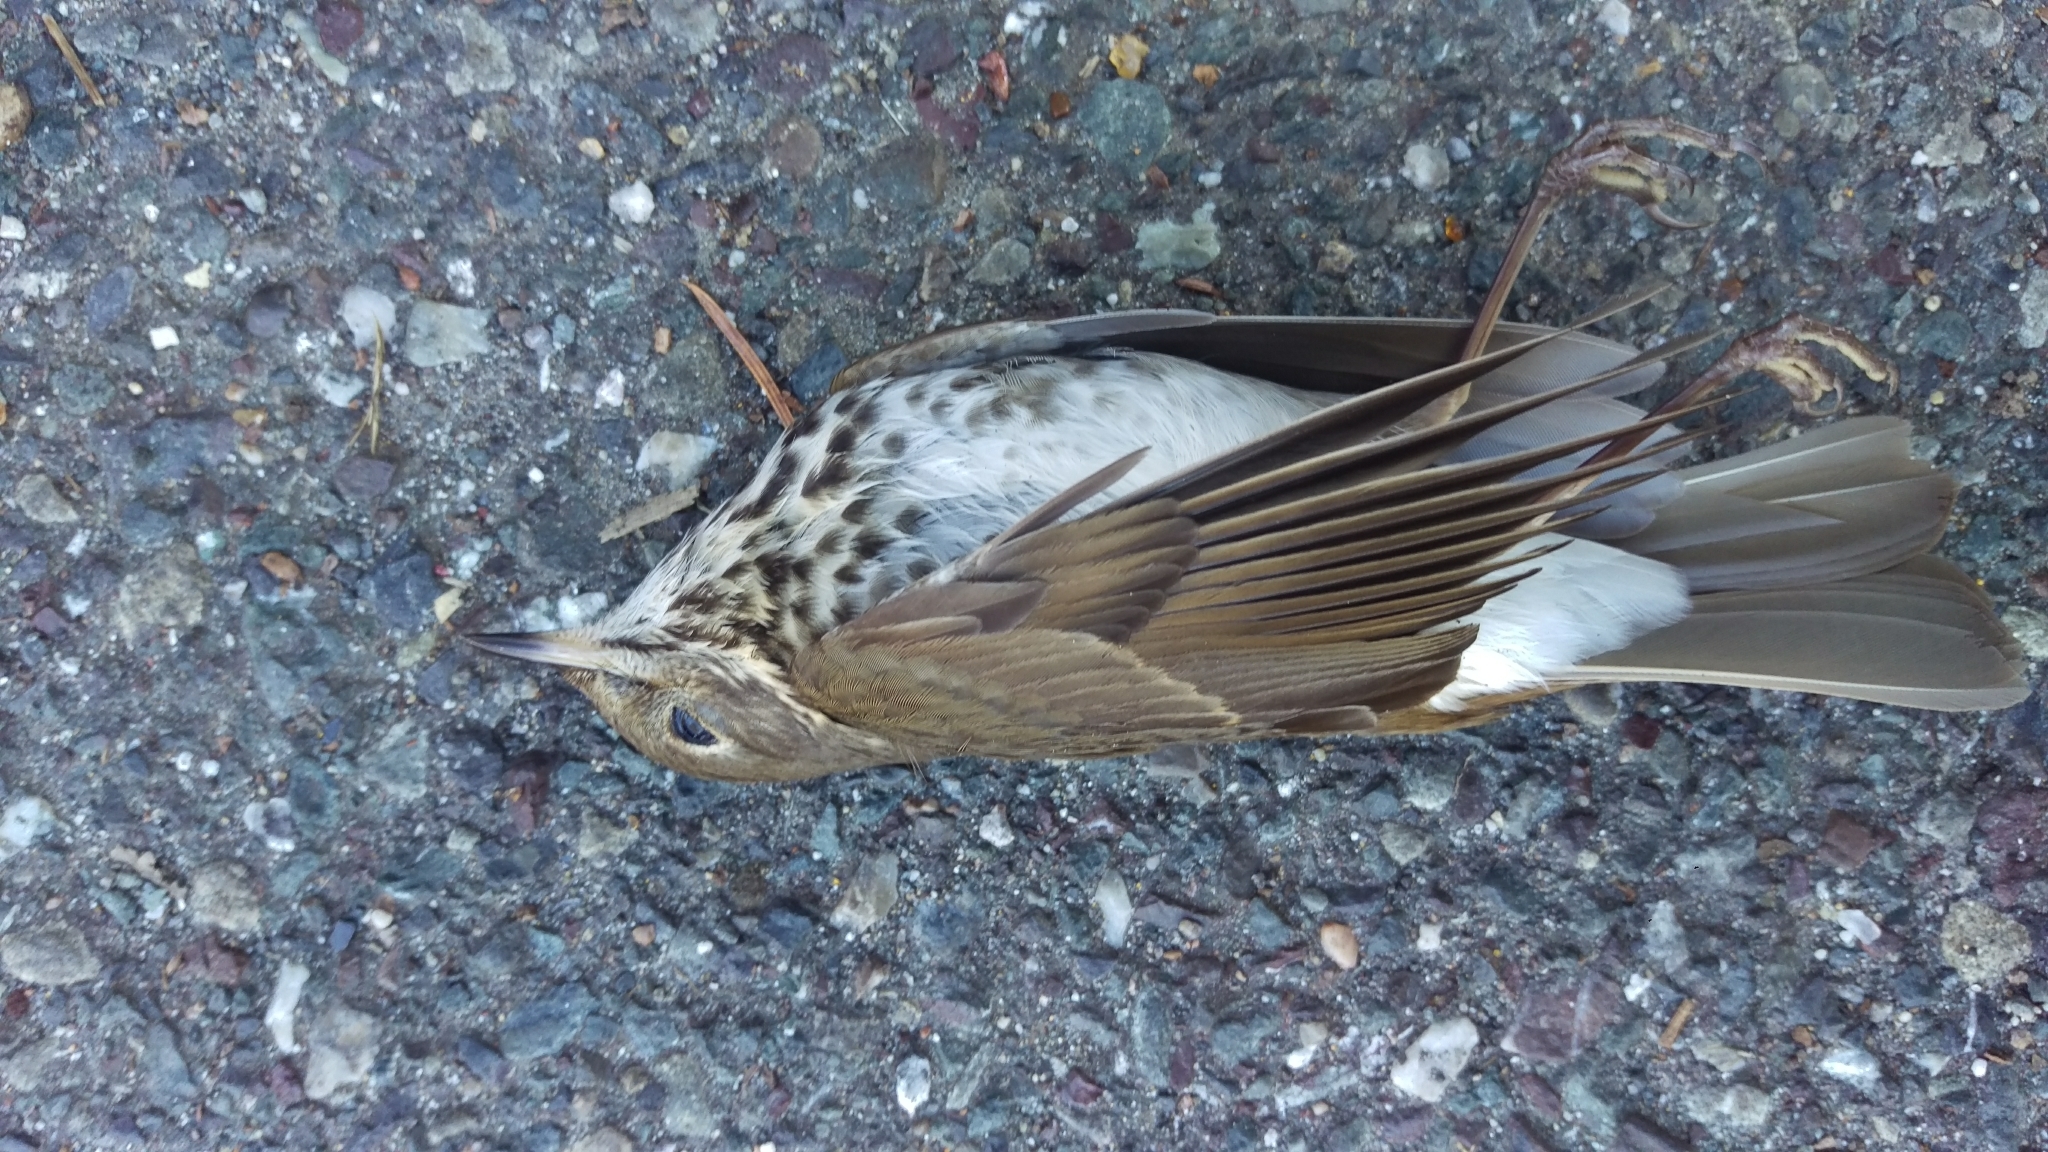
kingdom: Animalia
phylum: Chordata
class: Aves
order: Passeriformes
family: Turdidae
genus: Catharus
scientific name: Catharus guttatus
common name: Hermit thrush
